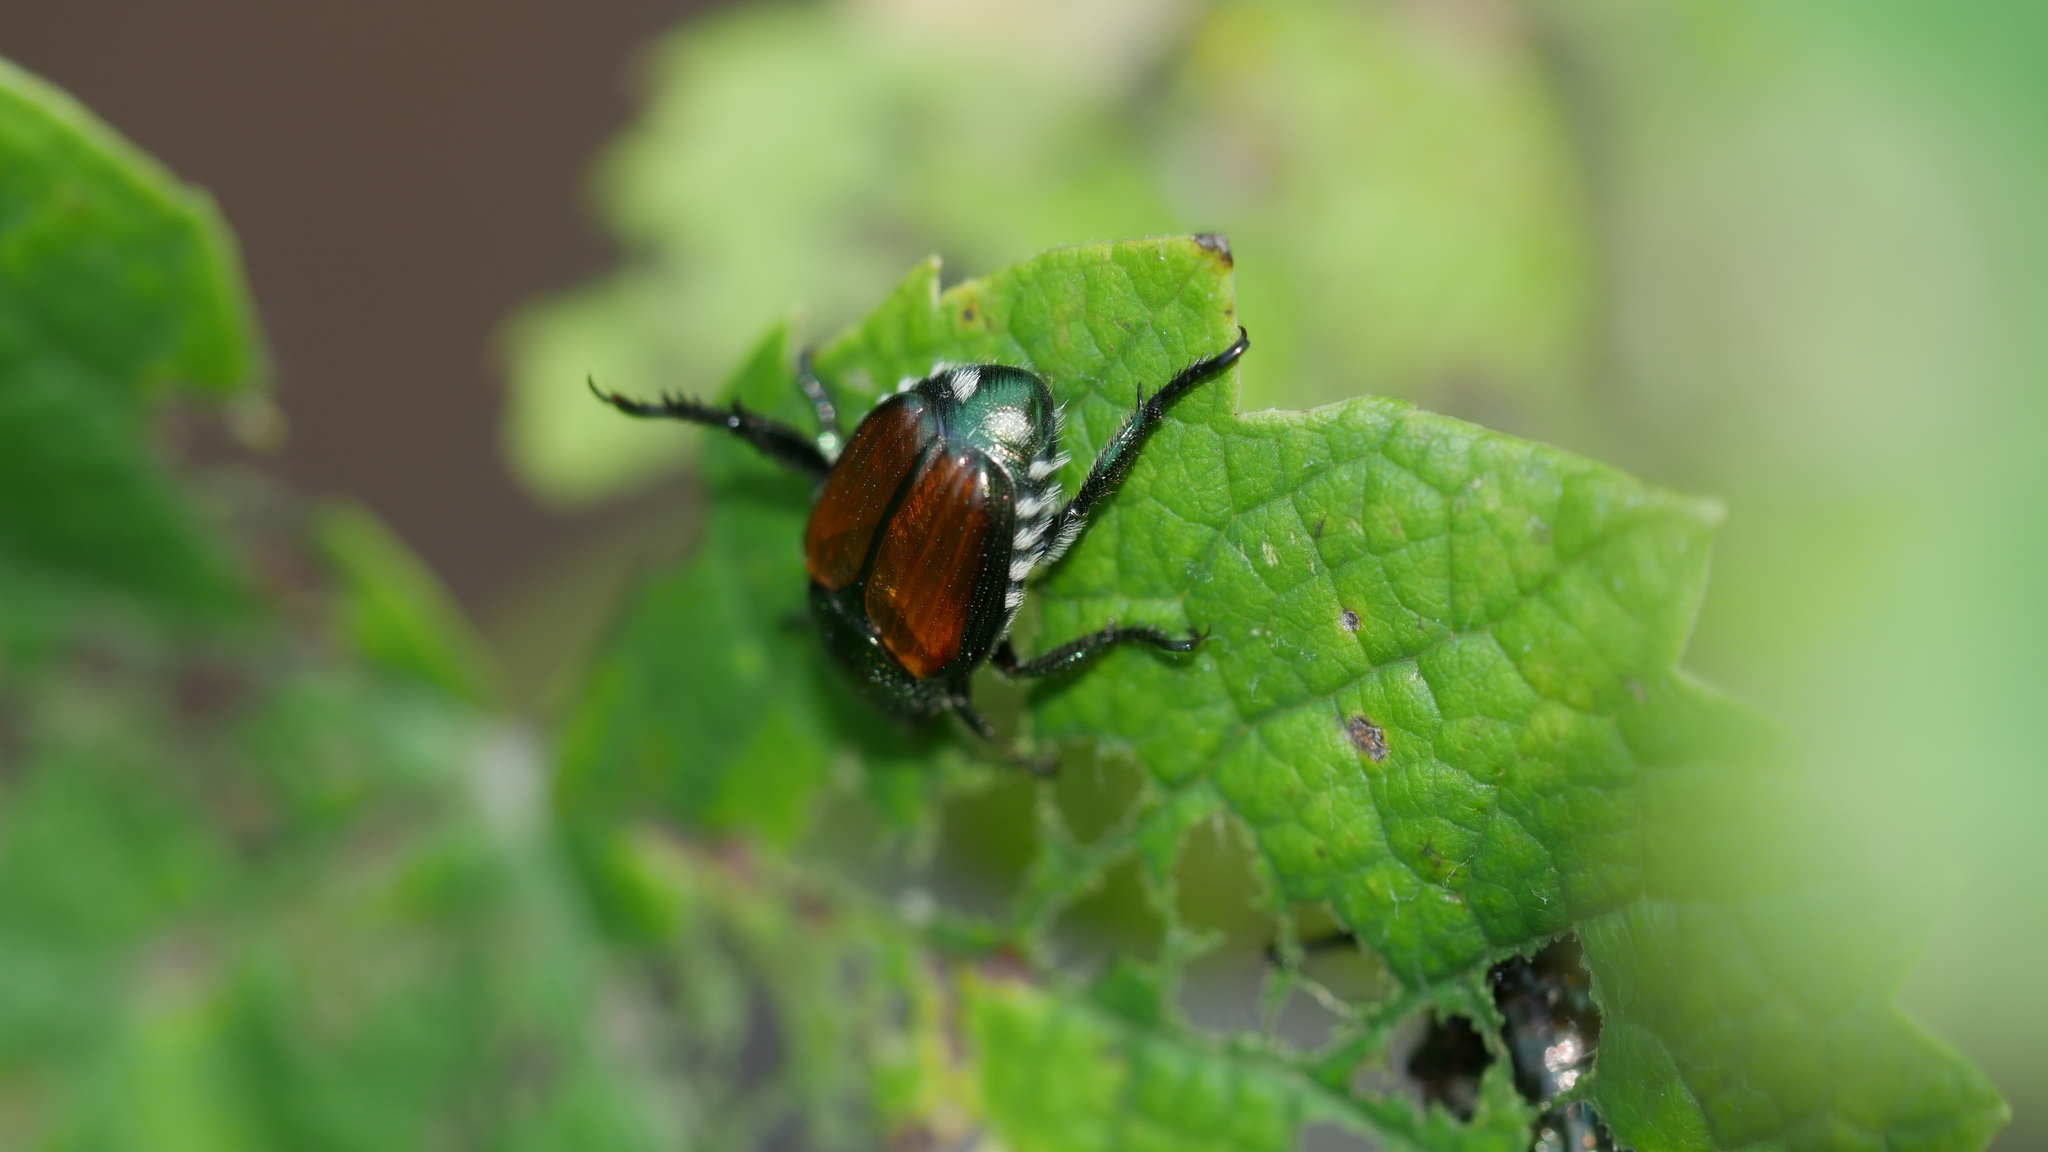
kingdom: Animalia
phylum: Arthropoda
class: Insecta
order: Coleoptera
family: Scarabaeidae
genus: Popillia
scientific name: Popillia japonica
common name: Japanese beetle
